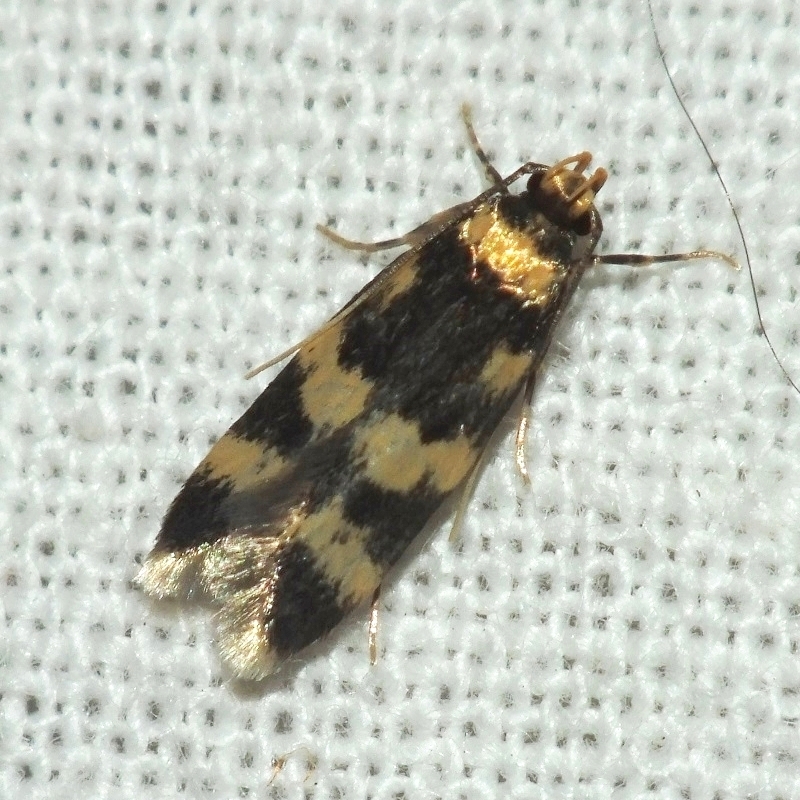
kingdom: Animalia
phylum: Arthropoda
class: Insecta
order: Lepidoptera
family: Autostichidae
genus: Oegoconia
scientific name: Oegoconia caradjai
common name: Straw obscure
